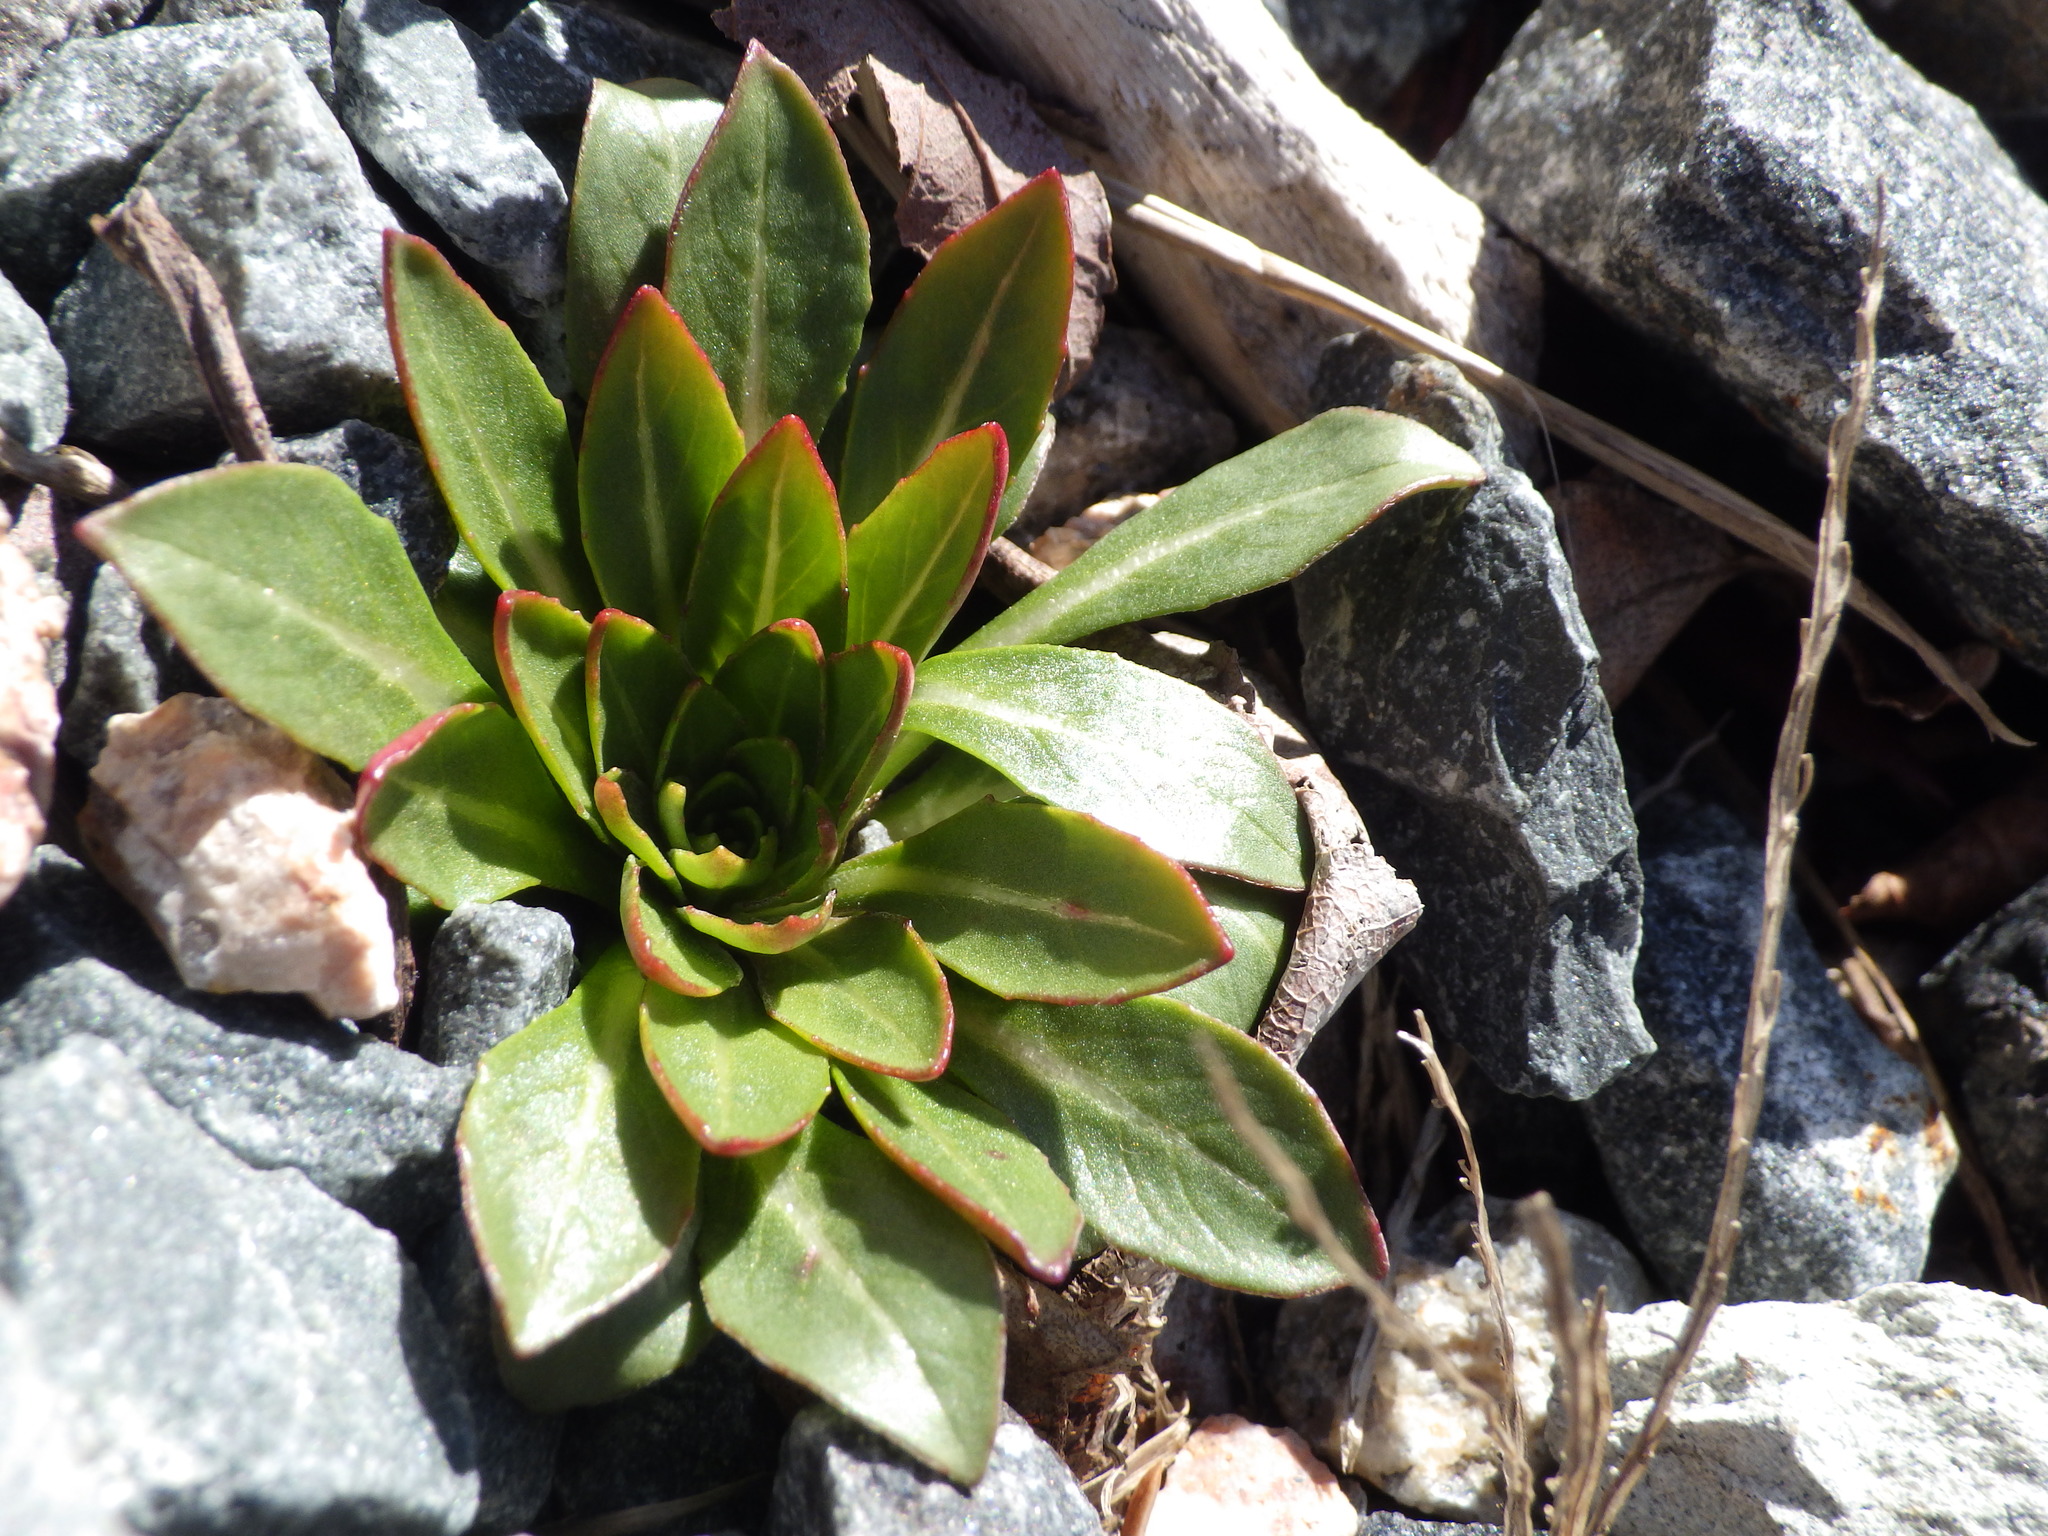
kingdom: Plantae
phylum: Tracheophyta
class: Magnoliopsida
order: Myrtales
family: Onagraceae
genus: Oenothera
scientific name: Oenothera biennis
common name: Common evening-primrose
